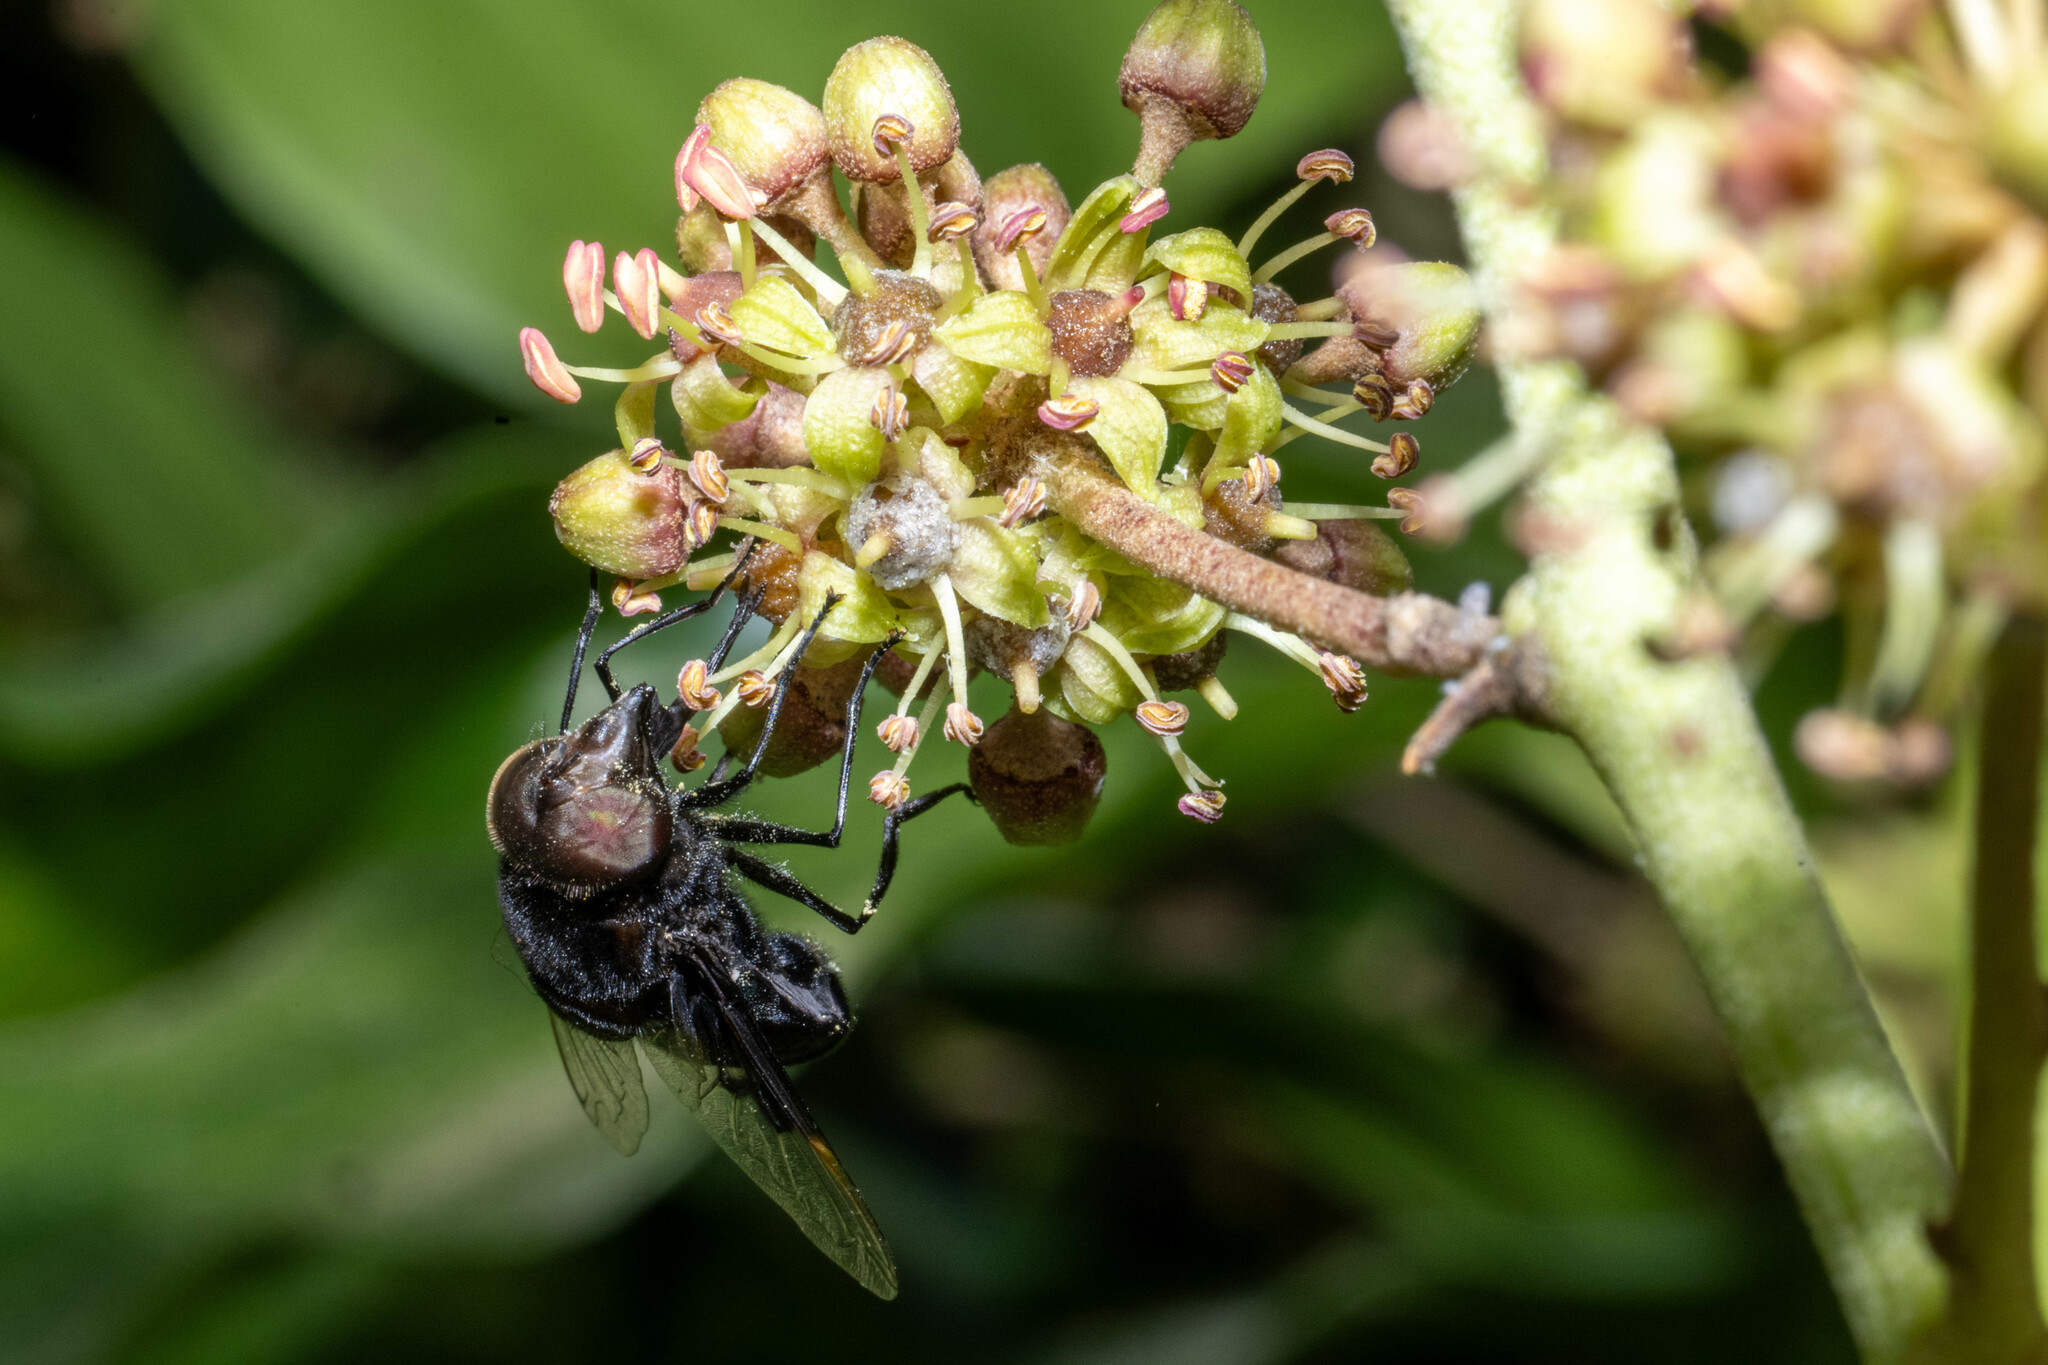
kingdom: Animalia
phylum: Arthropoda
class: Insecta
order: Diptera
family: Syrphidae
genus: Copestylum
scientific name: Copestylum violaceum
